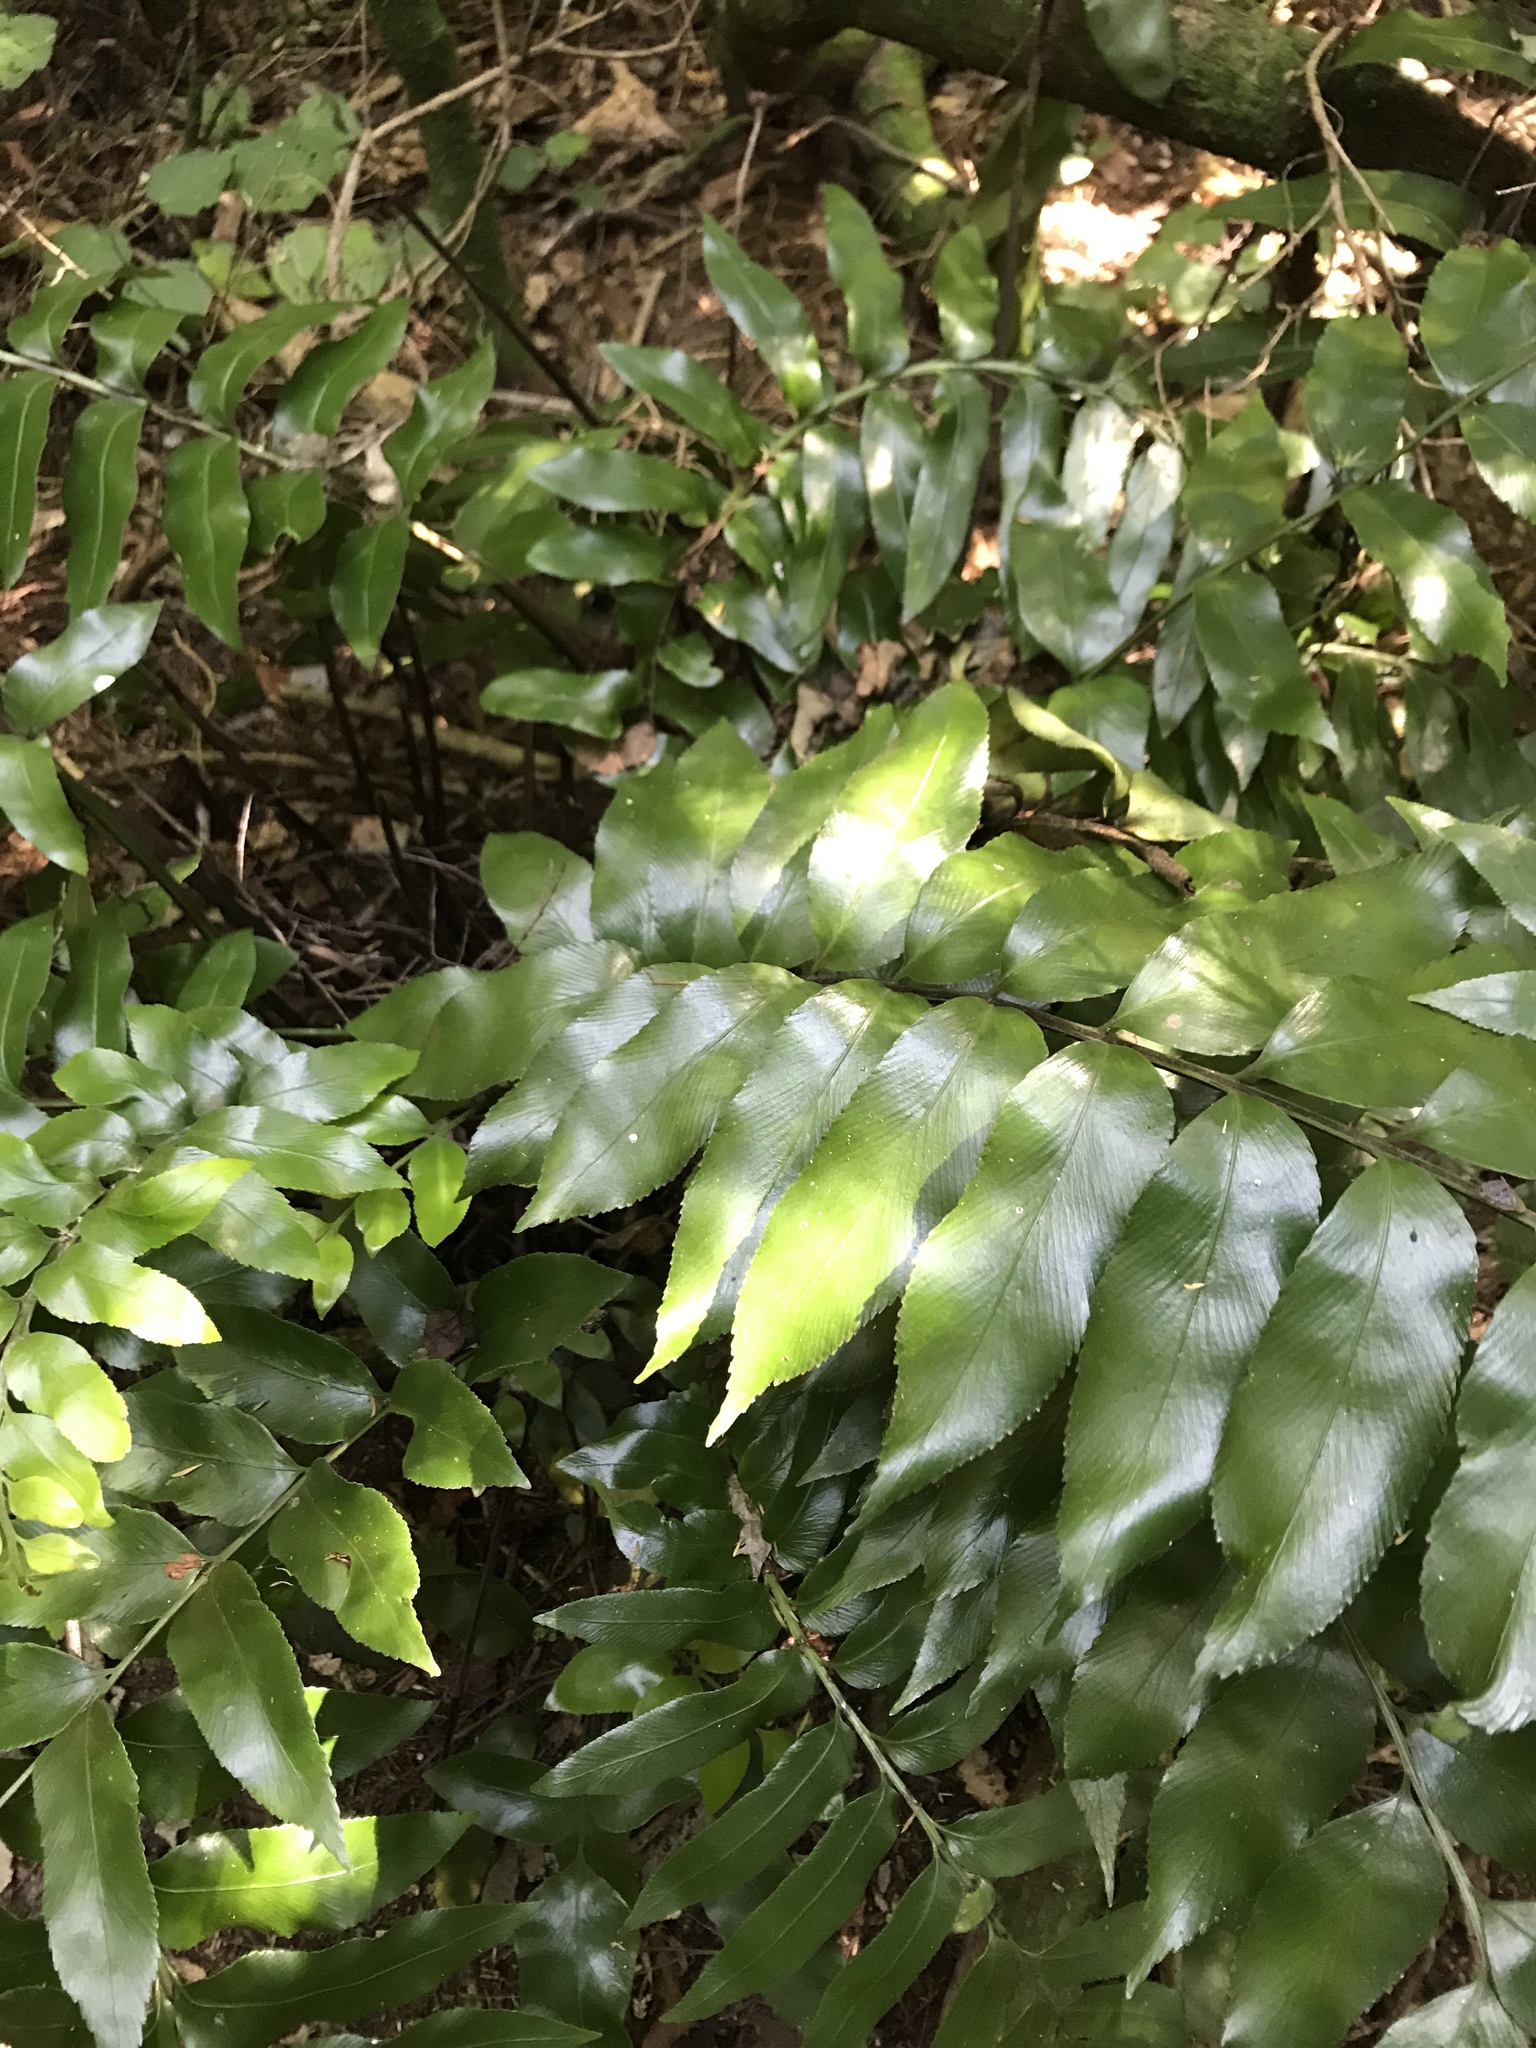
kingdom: Plantae
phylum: Tracheophyta
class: Polypodiopsida
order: Polypodiales
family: Aspleniaceae
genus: Asplenium
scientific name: Asplenium oblongifolium
